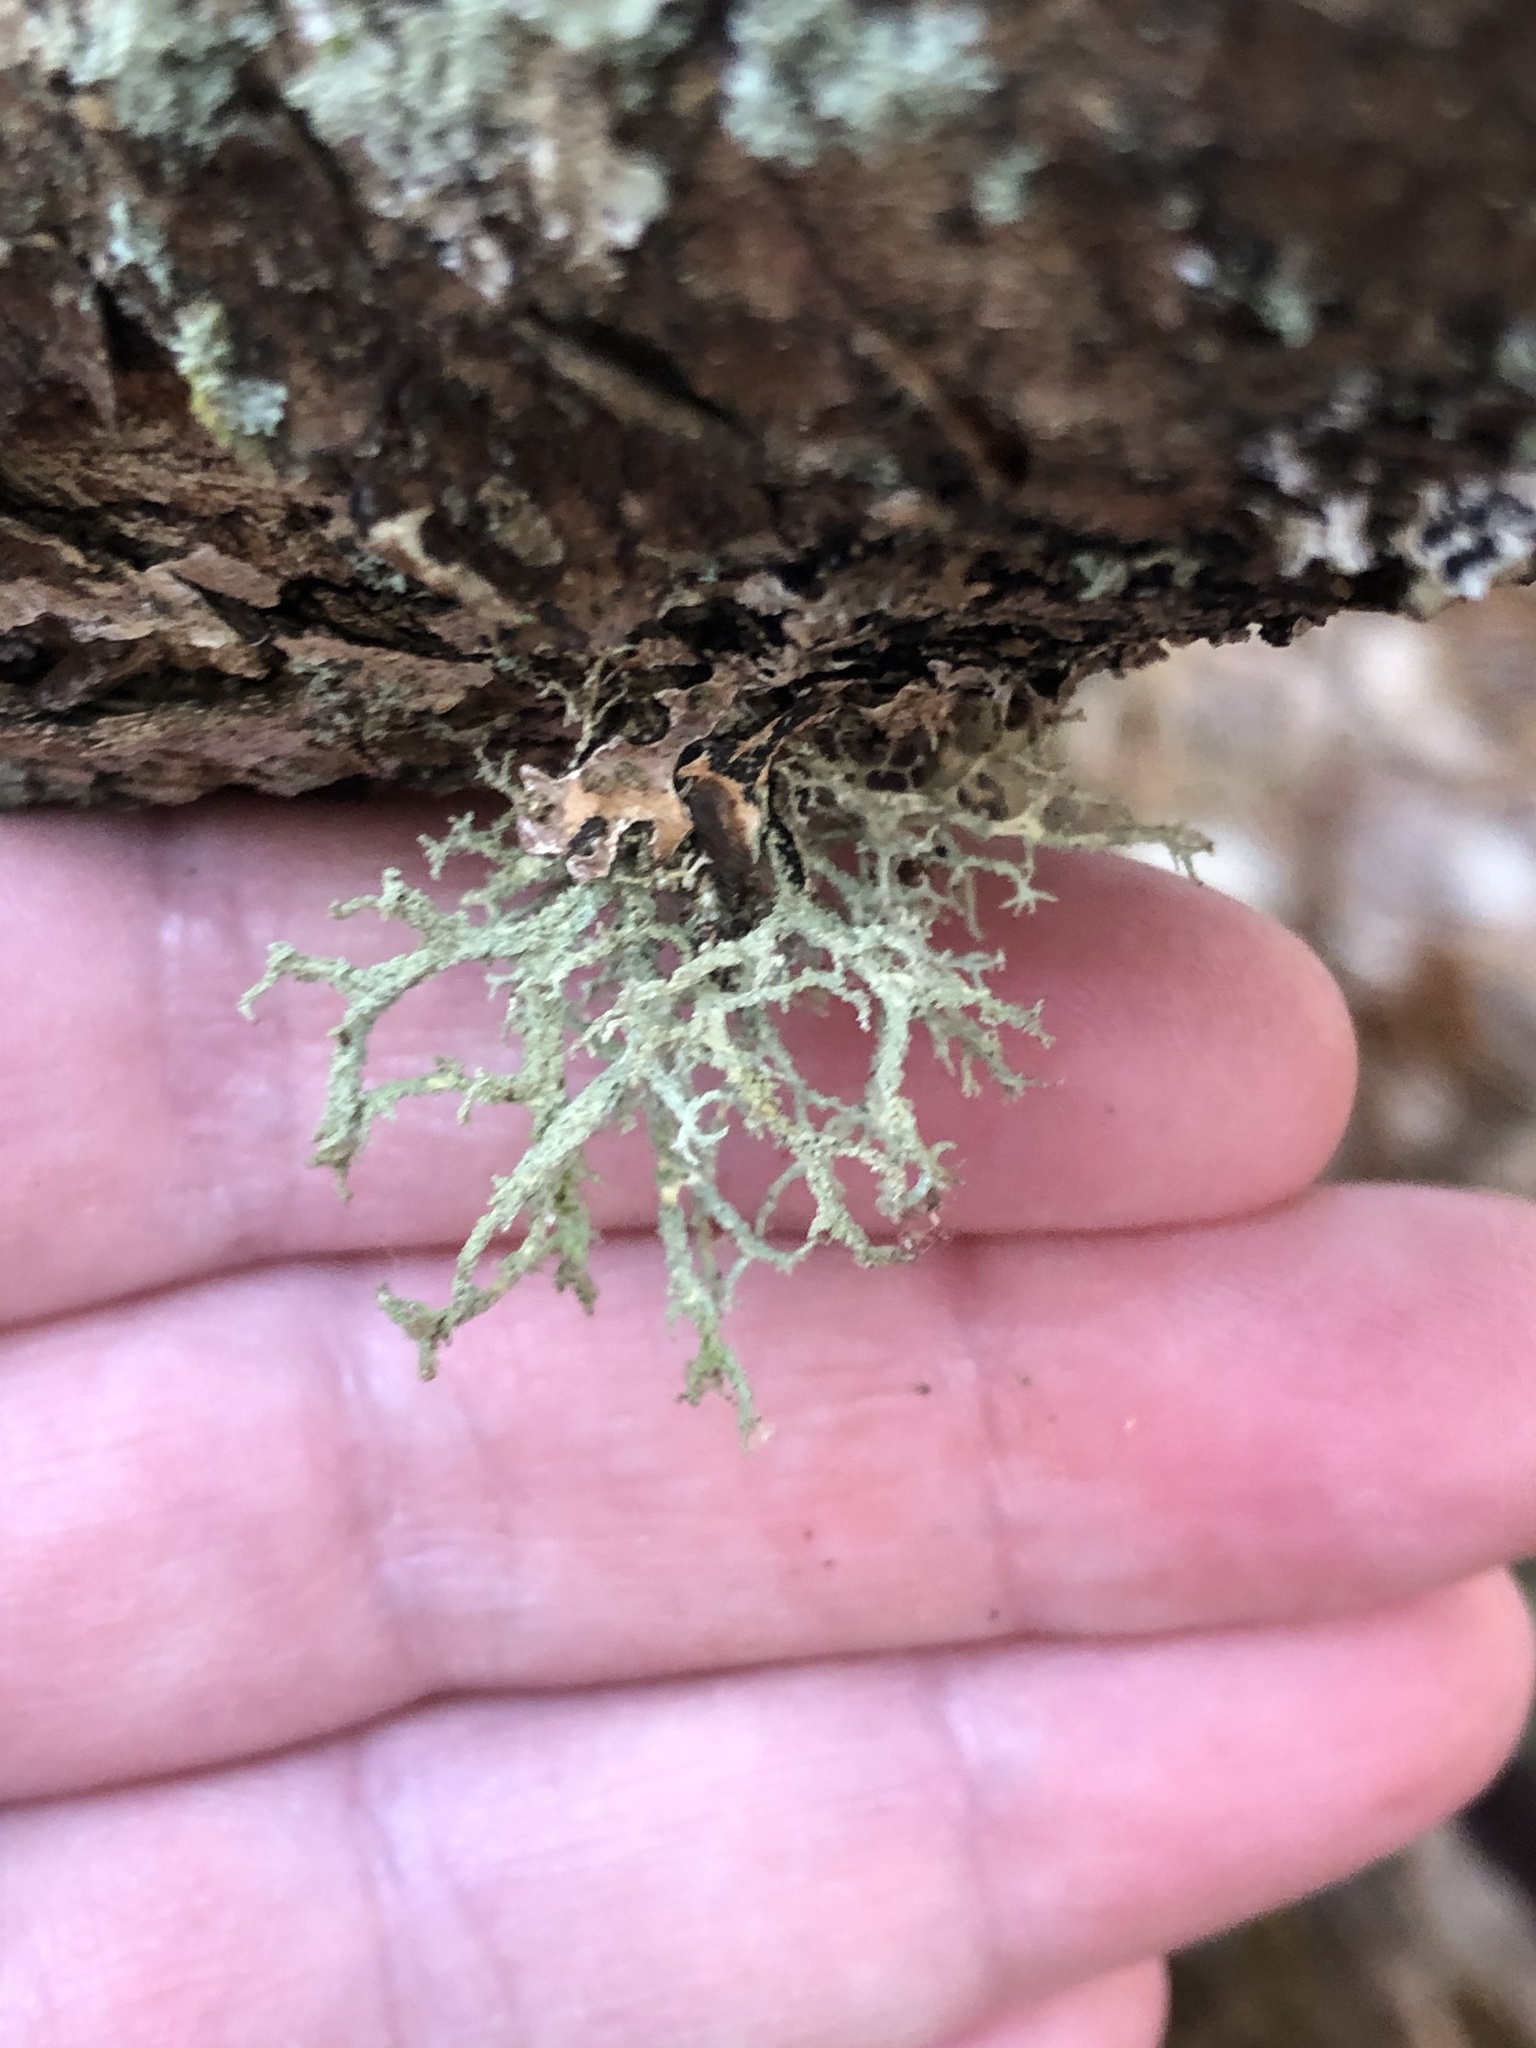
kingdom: Fungi
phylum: Ascomycota
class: Lecanoromycetes
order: Lecanorales
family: Parmeliaceae
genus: Evernia
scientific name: Evernia mesomorpha
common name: Boreal oak moss lichen
